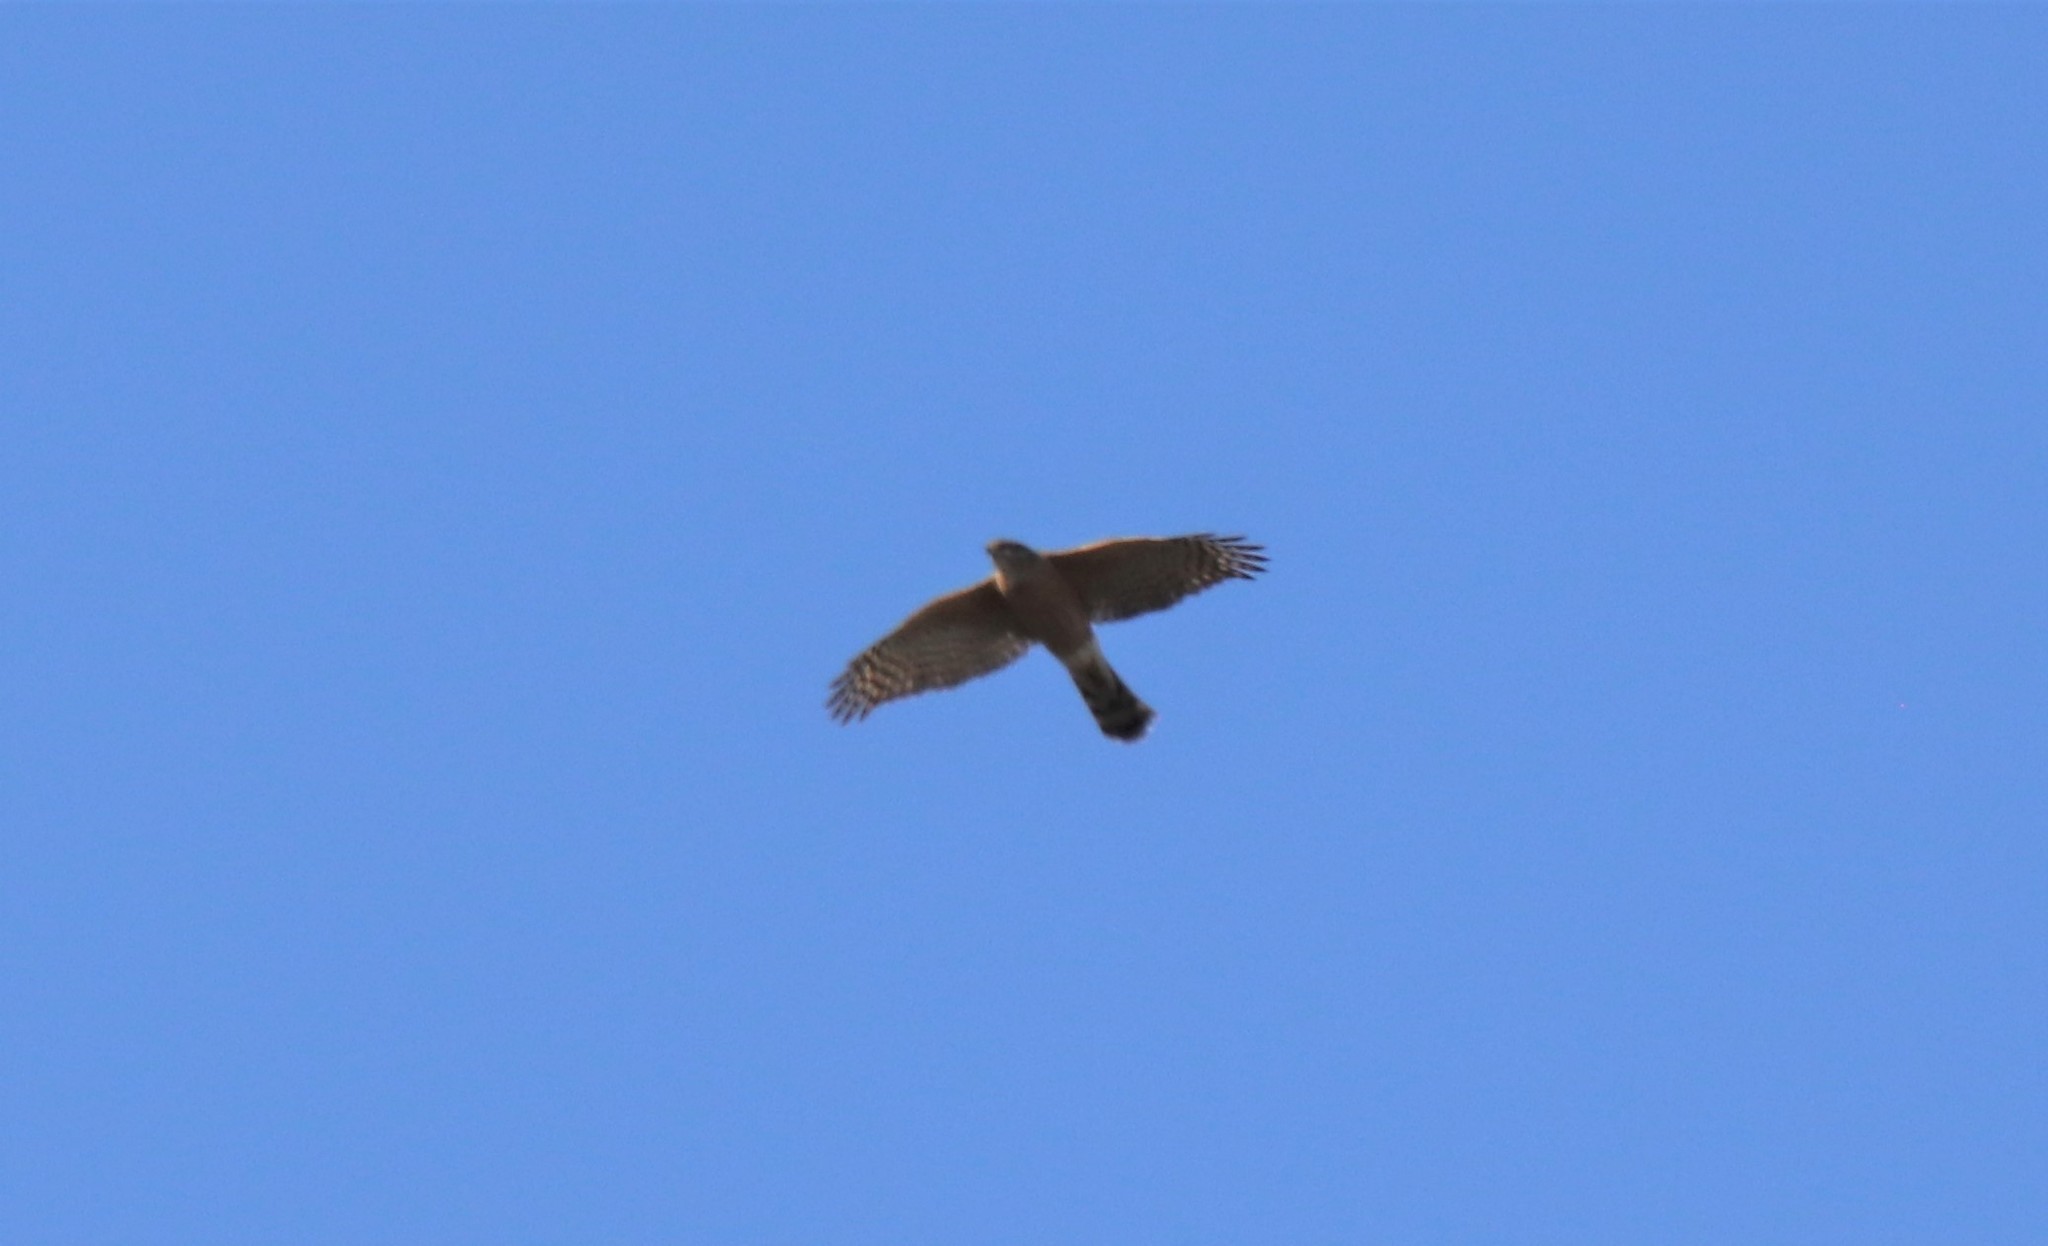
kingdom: Animalia
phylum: Chordata
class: Aves
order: Accipitriformes
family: Accipitridae
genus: Accipiter
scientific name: Accipiter cooperii
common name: Cooper's hawk
